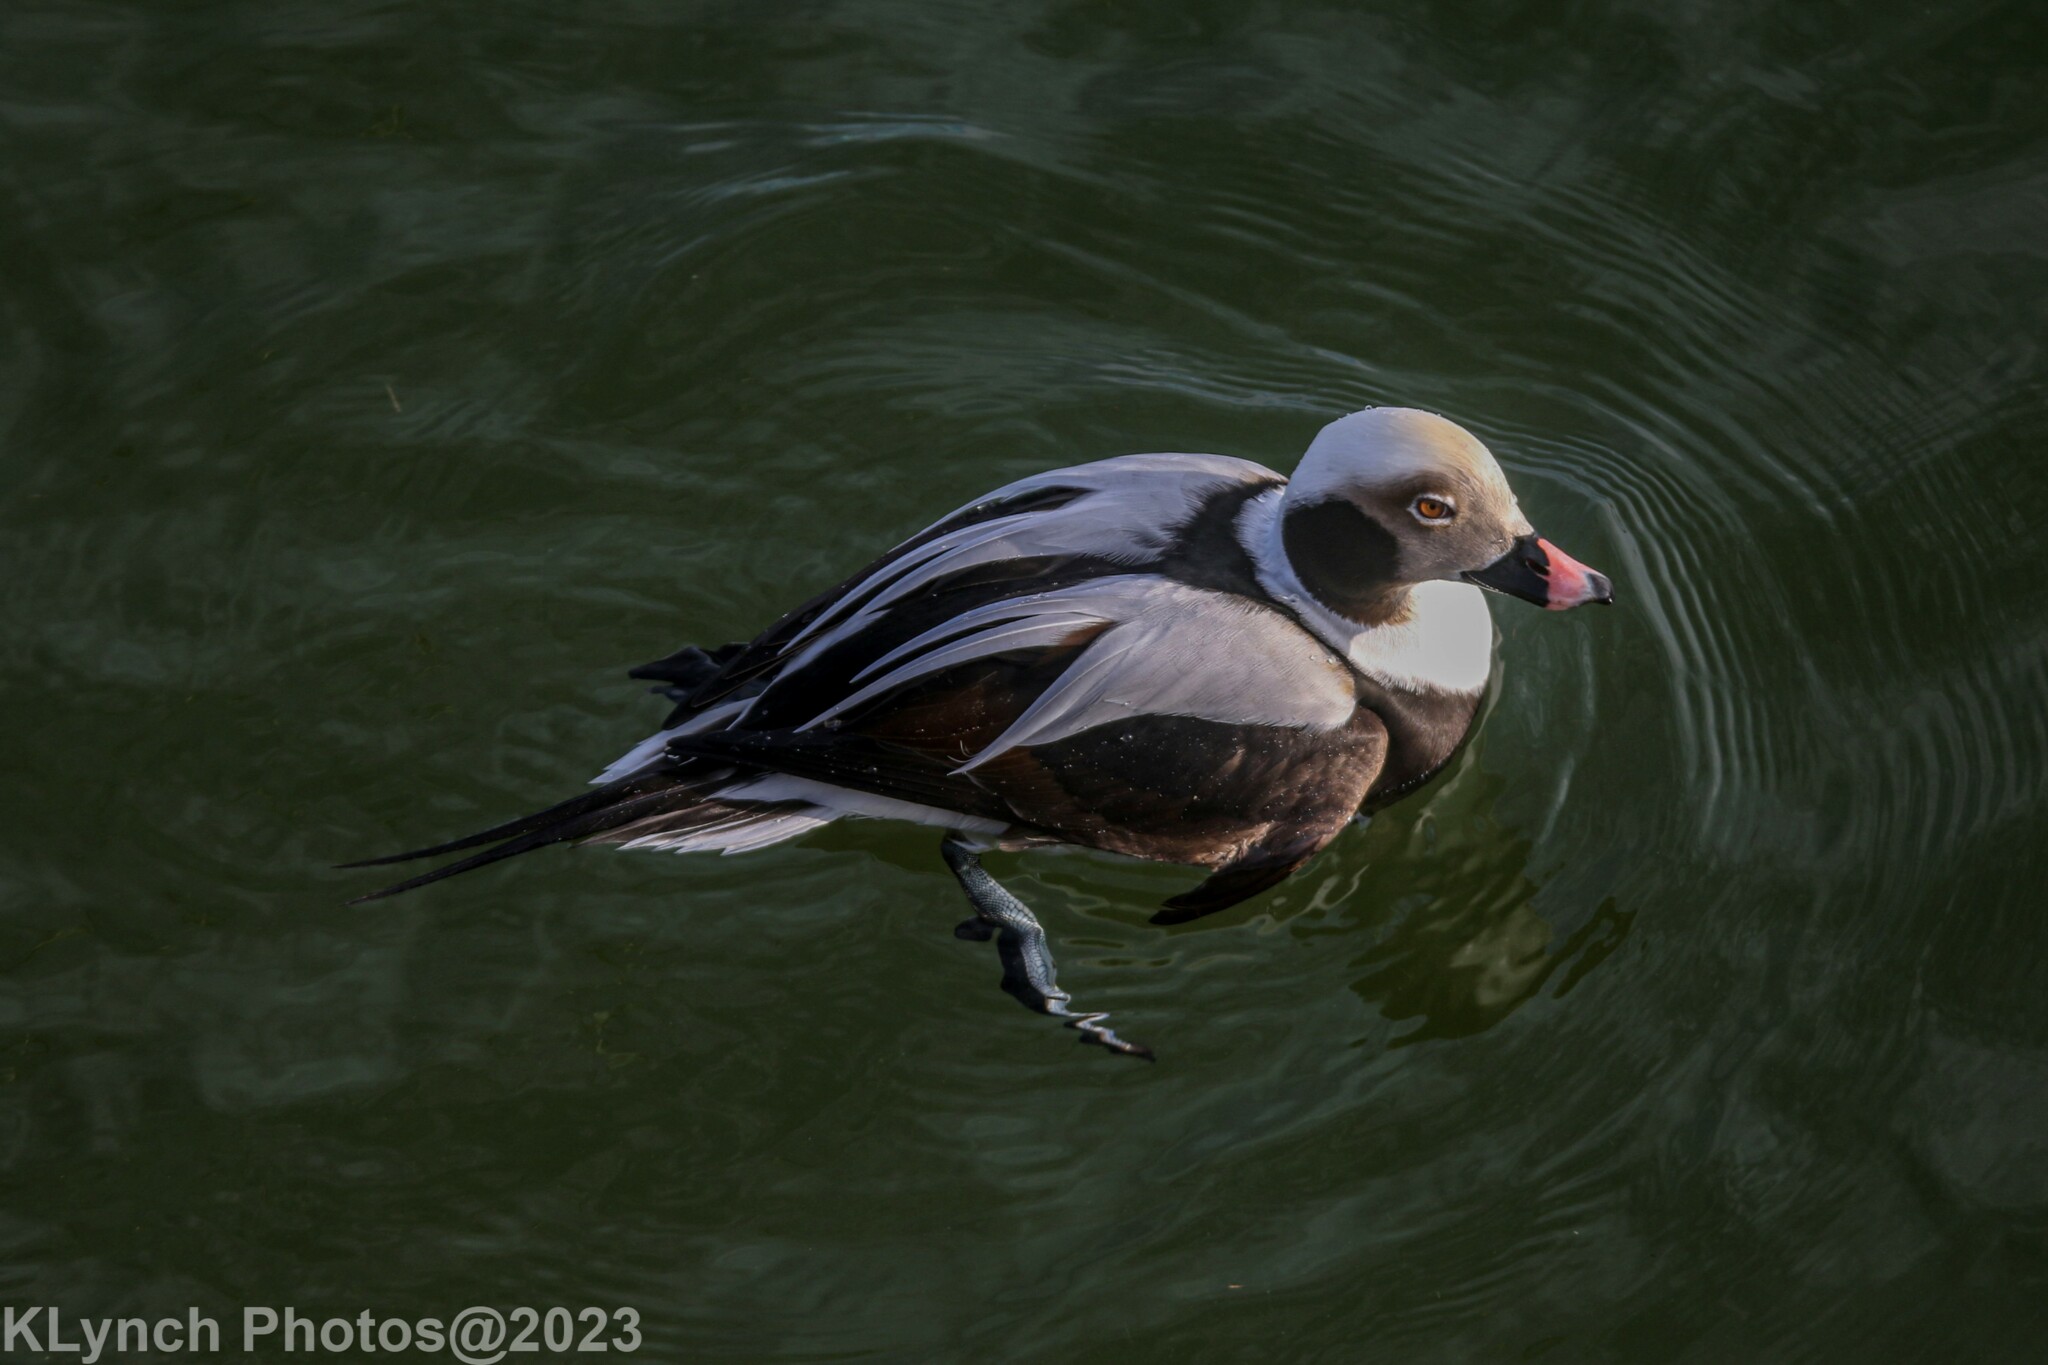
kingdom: Animalia
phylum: Chordata
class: Aves
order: Anseriformes
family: Anatidae
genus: Clangula
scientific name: Clangula hyemalis
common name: Long-tailed duck
